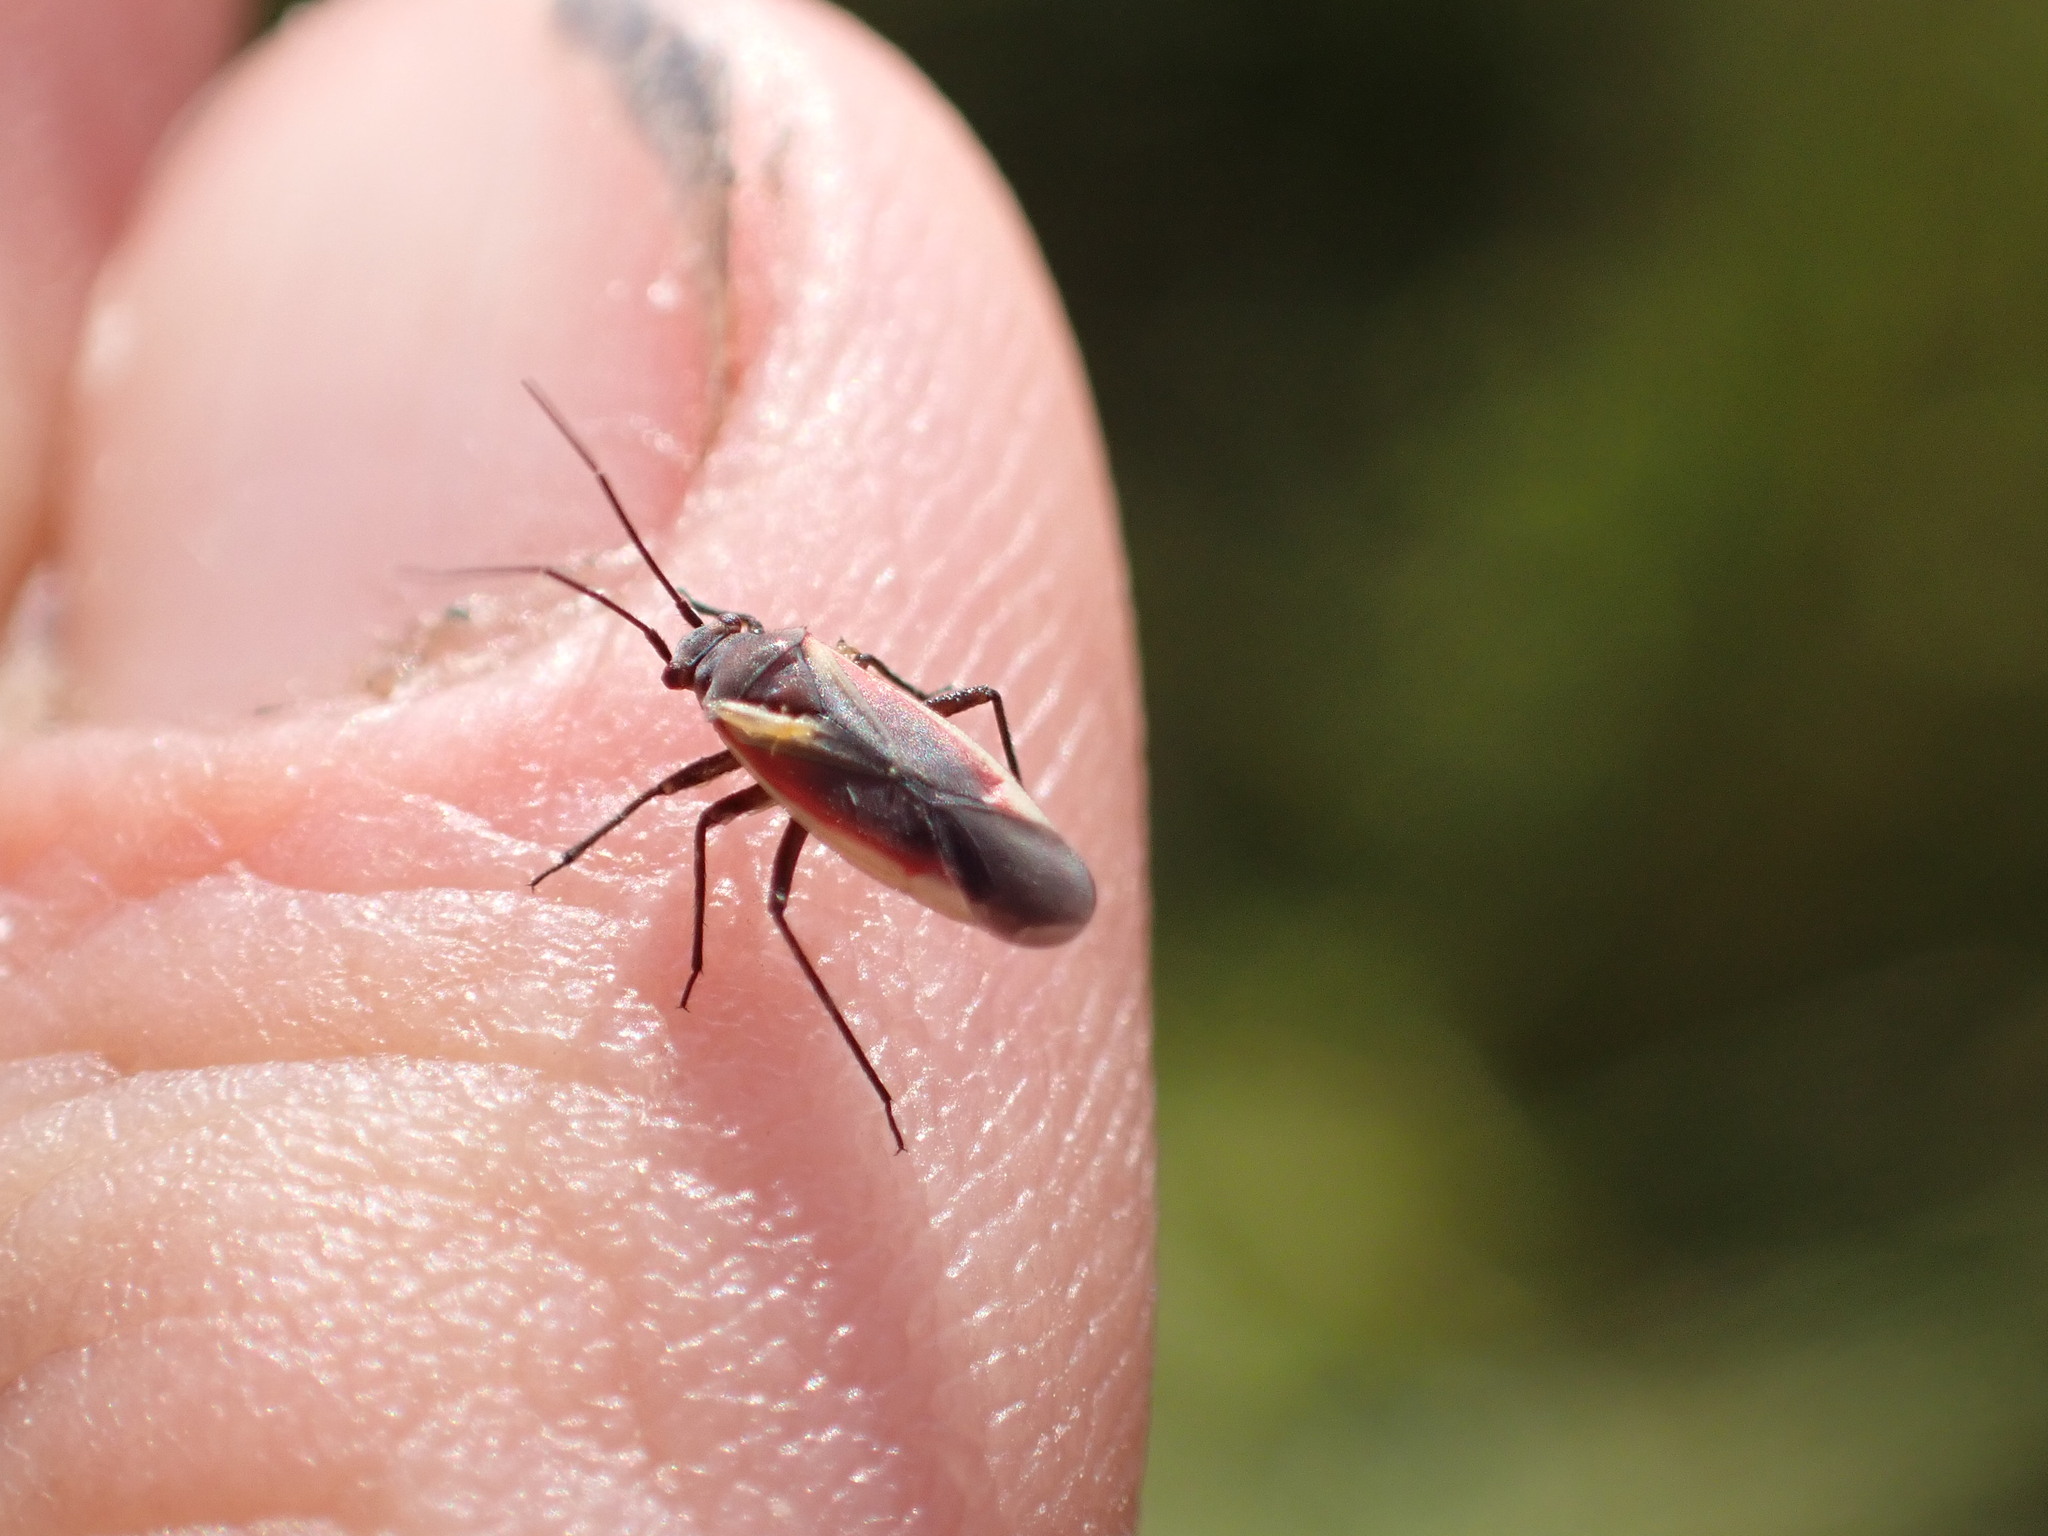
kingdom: Animalia
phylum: Arthropoda
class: Insecta
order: Hemiptera
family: Miridae
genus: Lopidea
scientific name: Lopidea marginata
